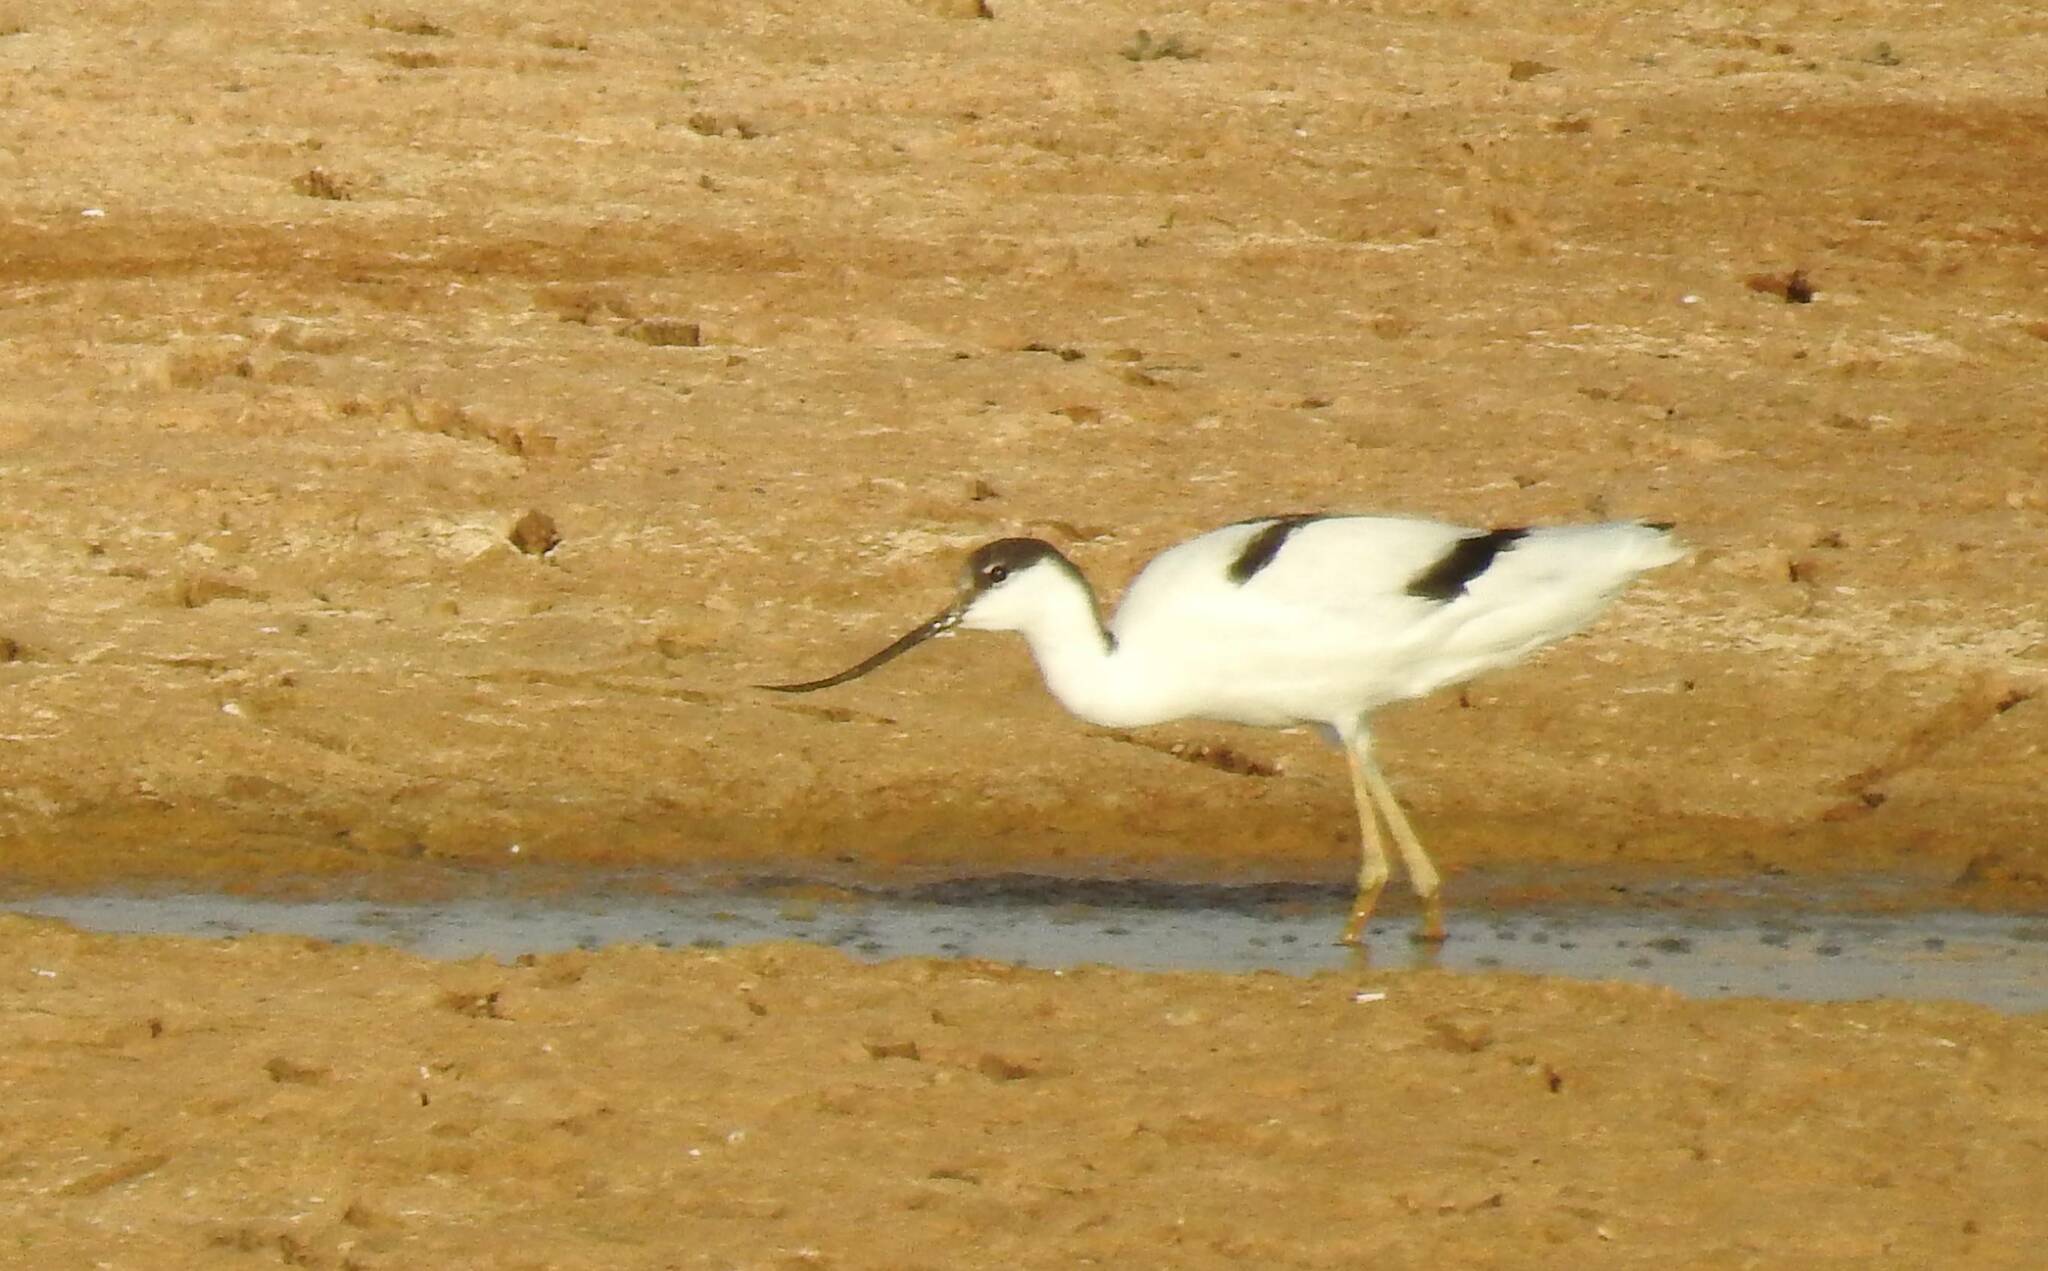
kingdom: Animalia
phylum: Chordata
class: Aves
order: Charadriiformes
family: Recurvirostridae
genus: Recurvirostra
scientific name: Recurvirostra avosetta
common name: Pied avocet
